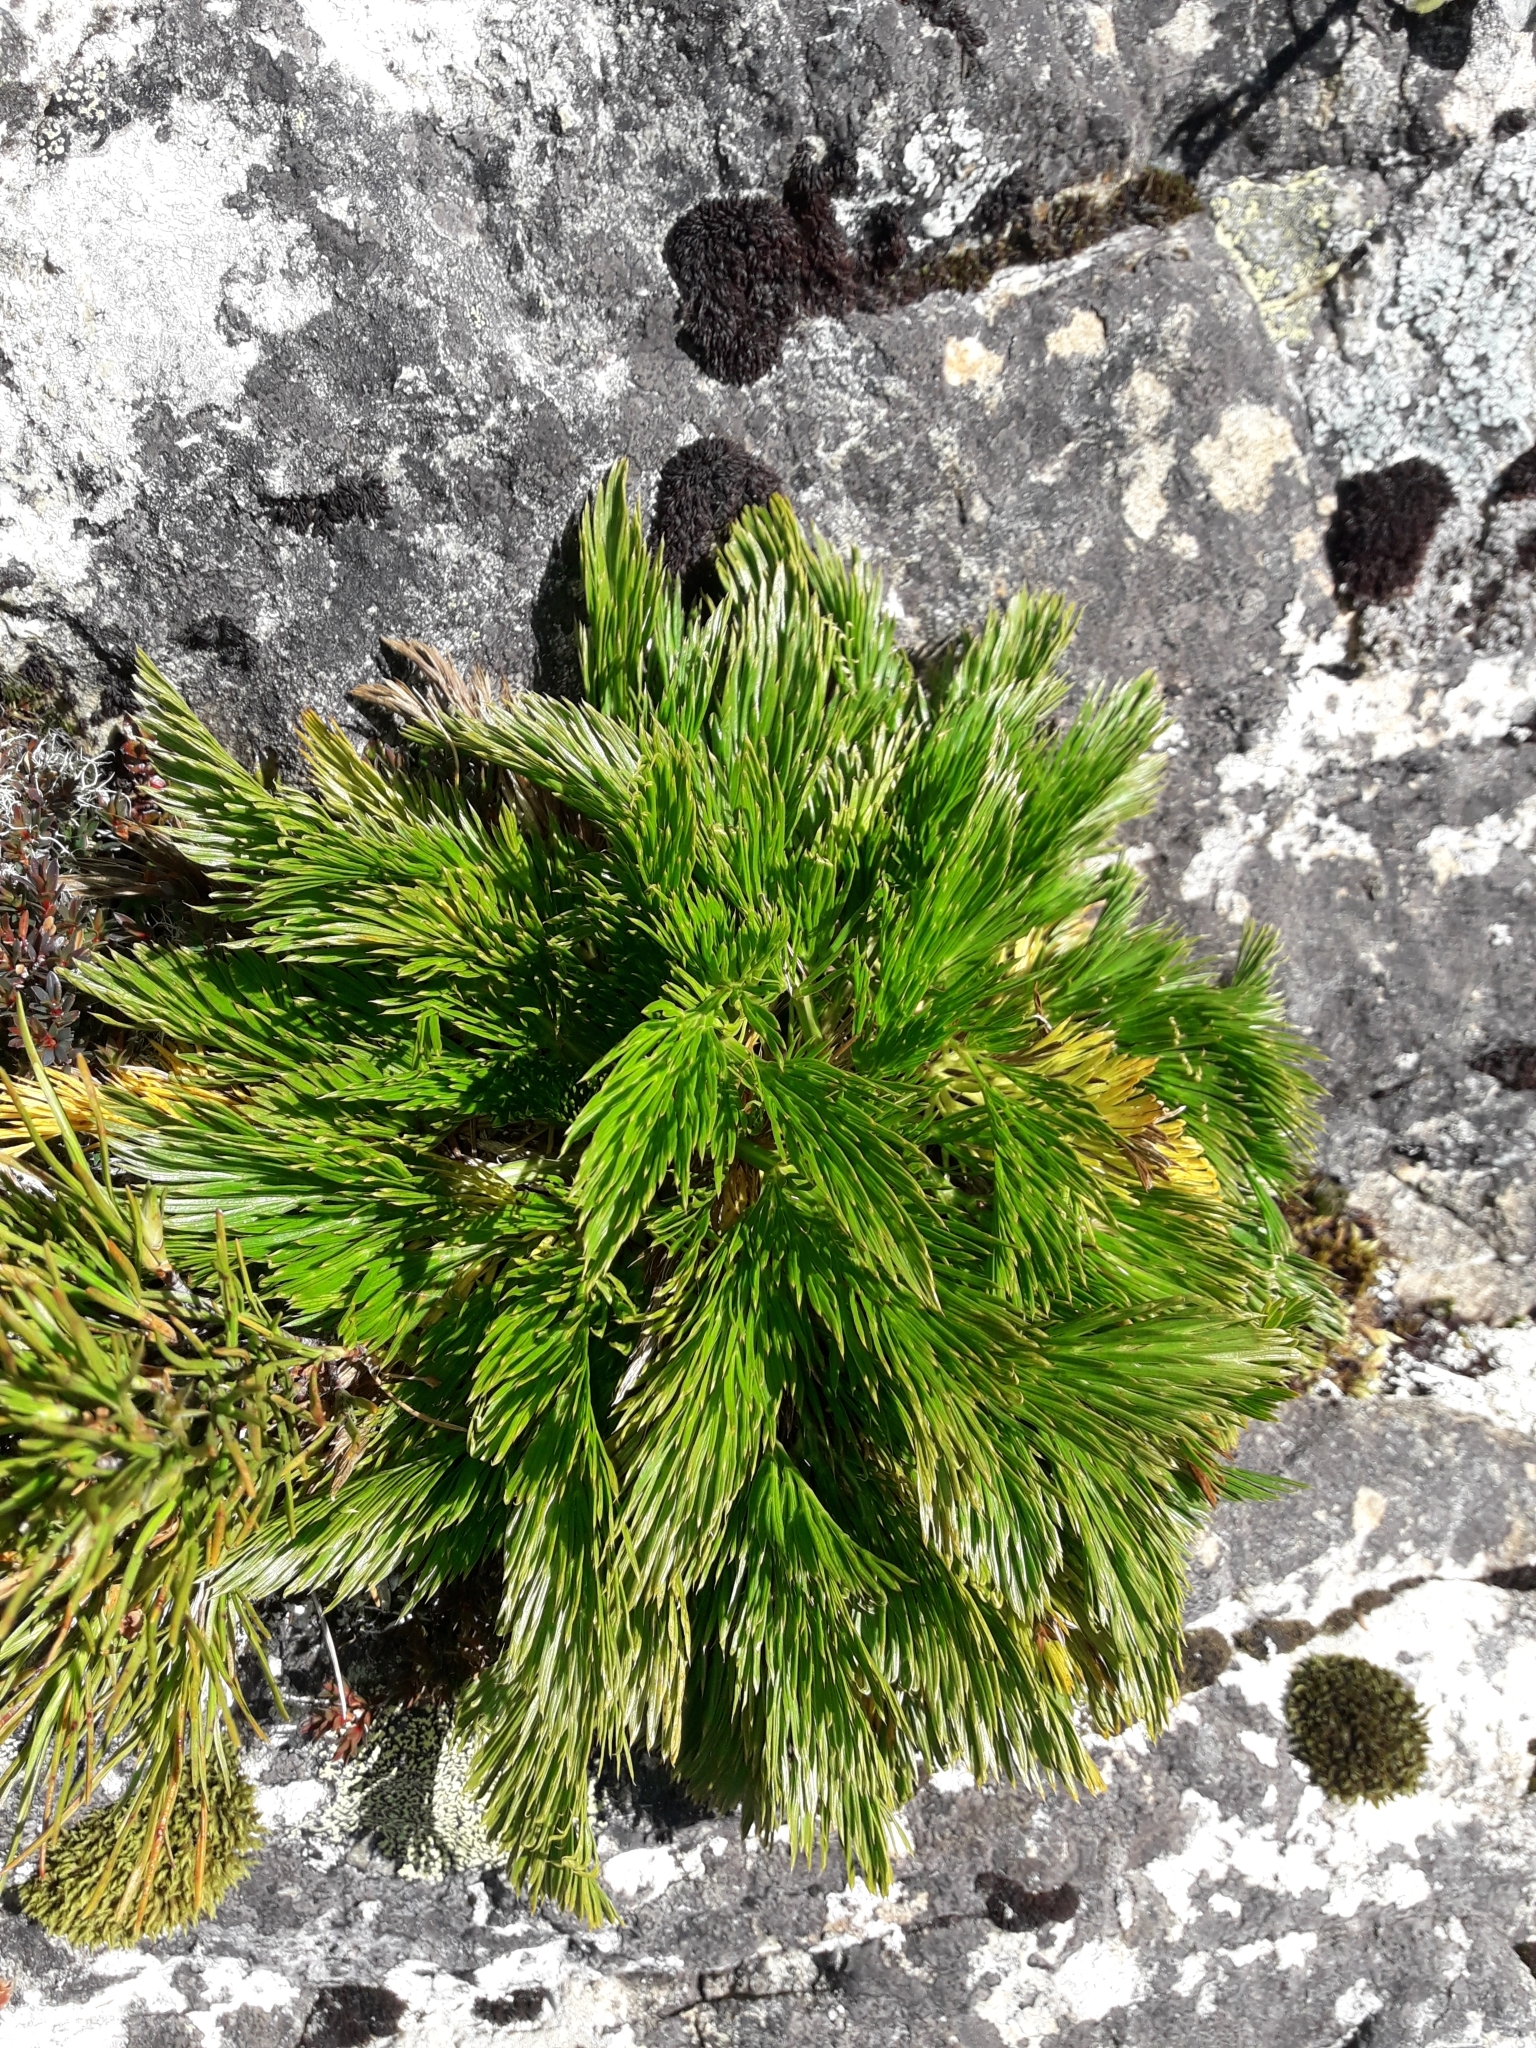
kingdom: Plantae
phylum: Tracheophyta
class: Magnoliopsida
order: Apiales
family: Apiaceae
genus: Aciphylla
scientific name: Aciphylla dissecta
